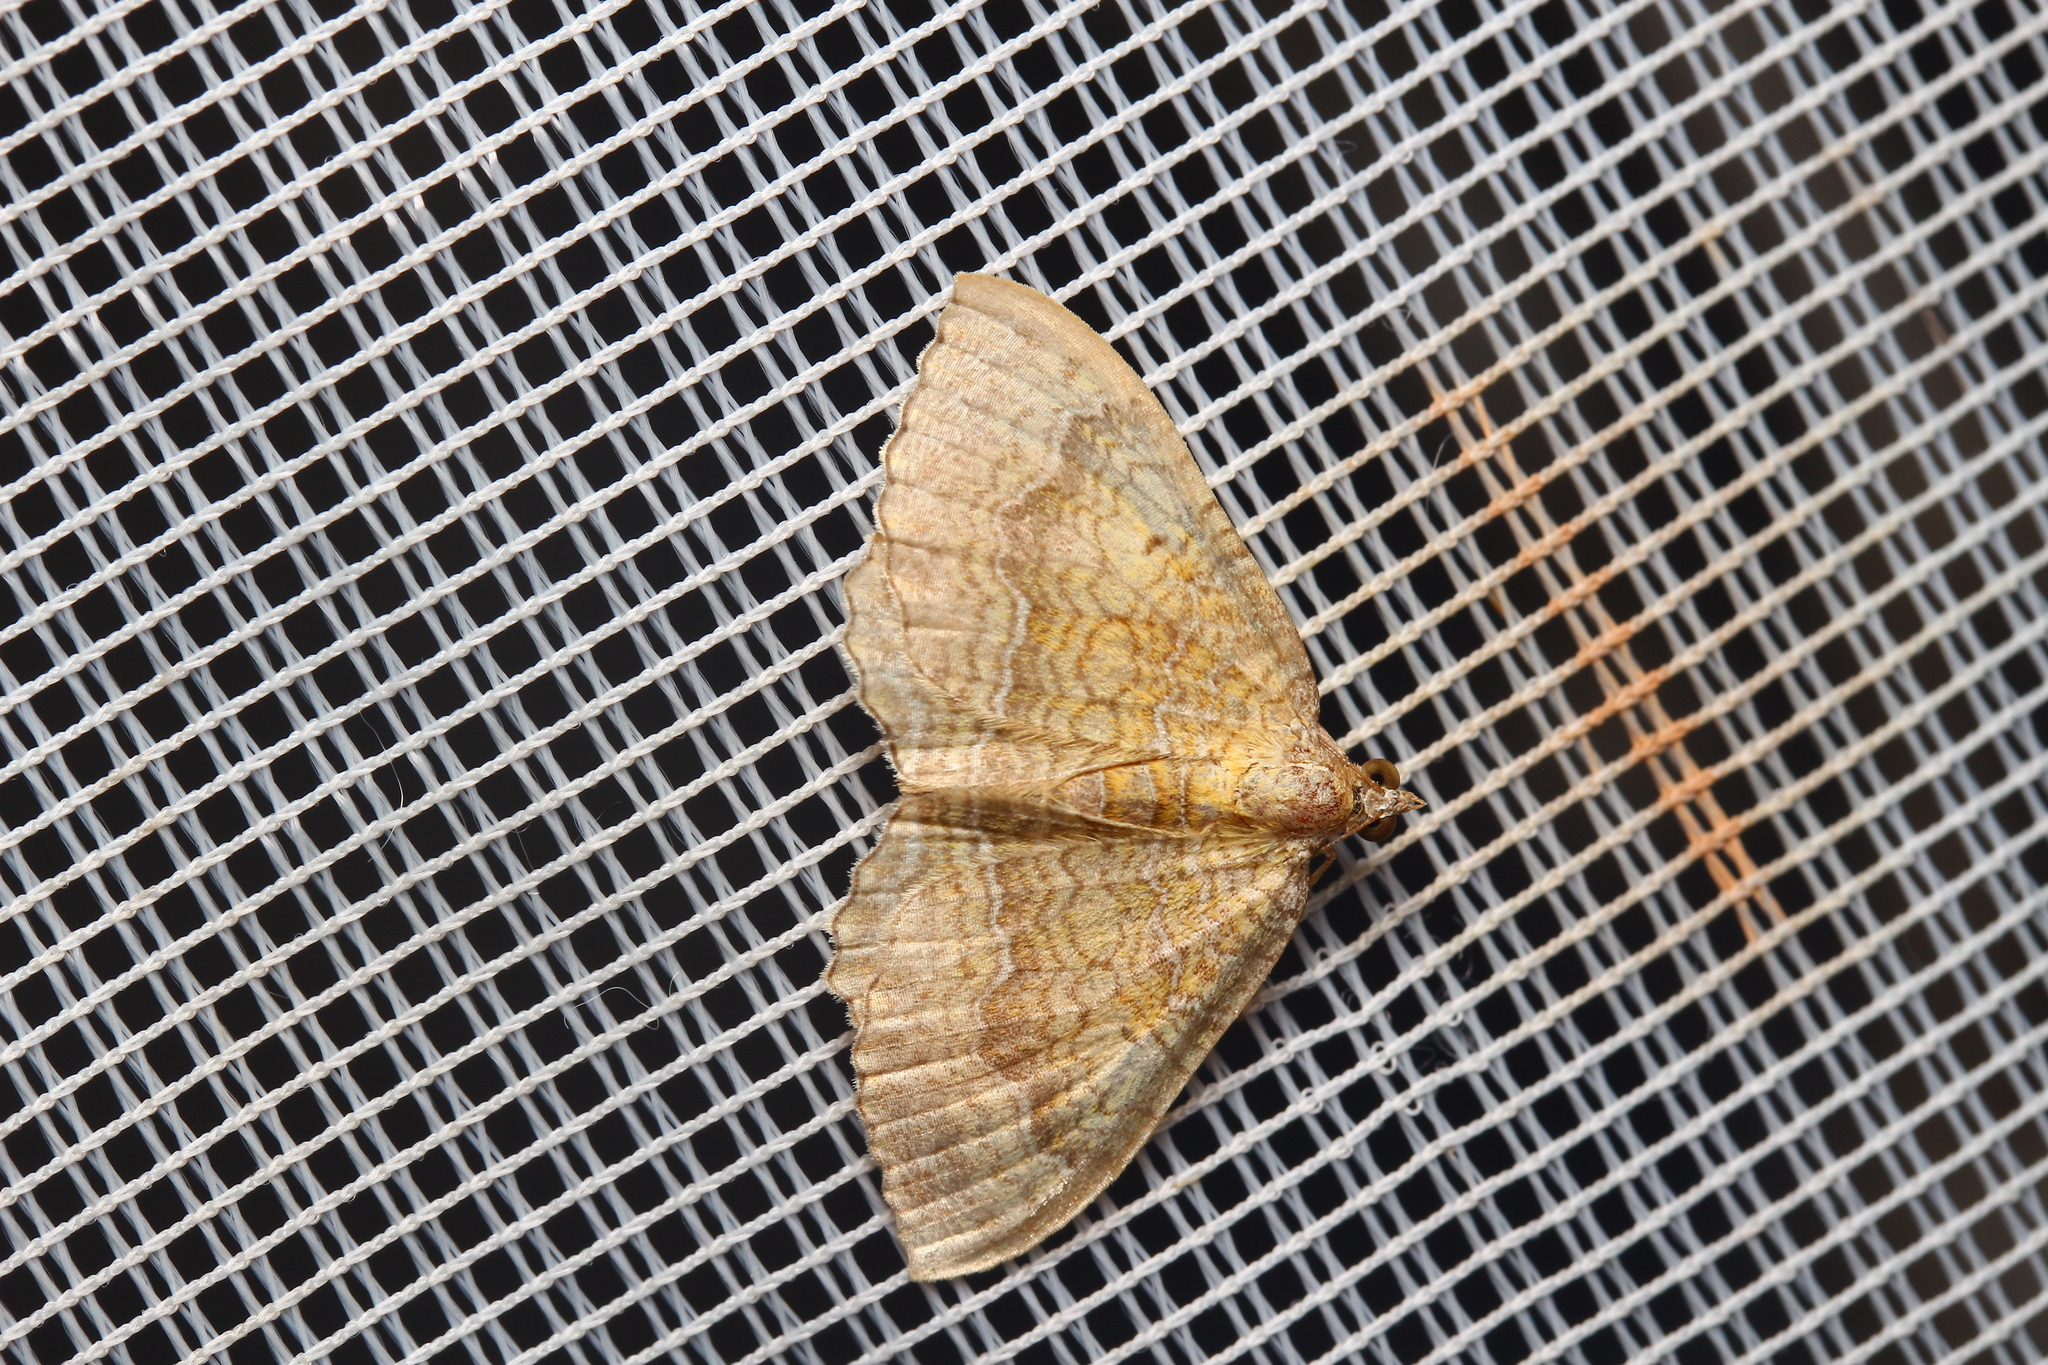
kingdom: Animalia
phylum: Arthropoda
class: Insecta
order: Lepidoptera
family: Geometridae
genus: Camptogramma
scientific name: Camptogramma bilineata
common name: Yellow shell
